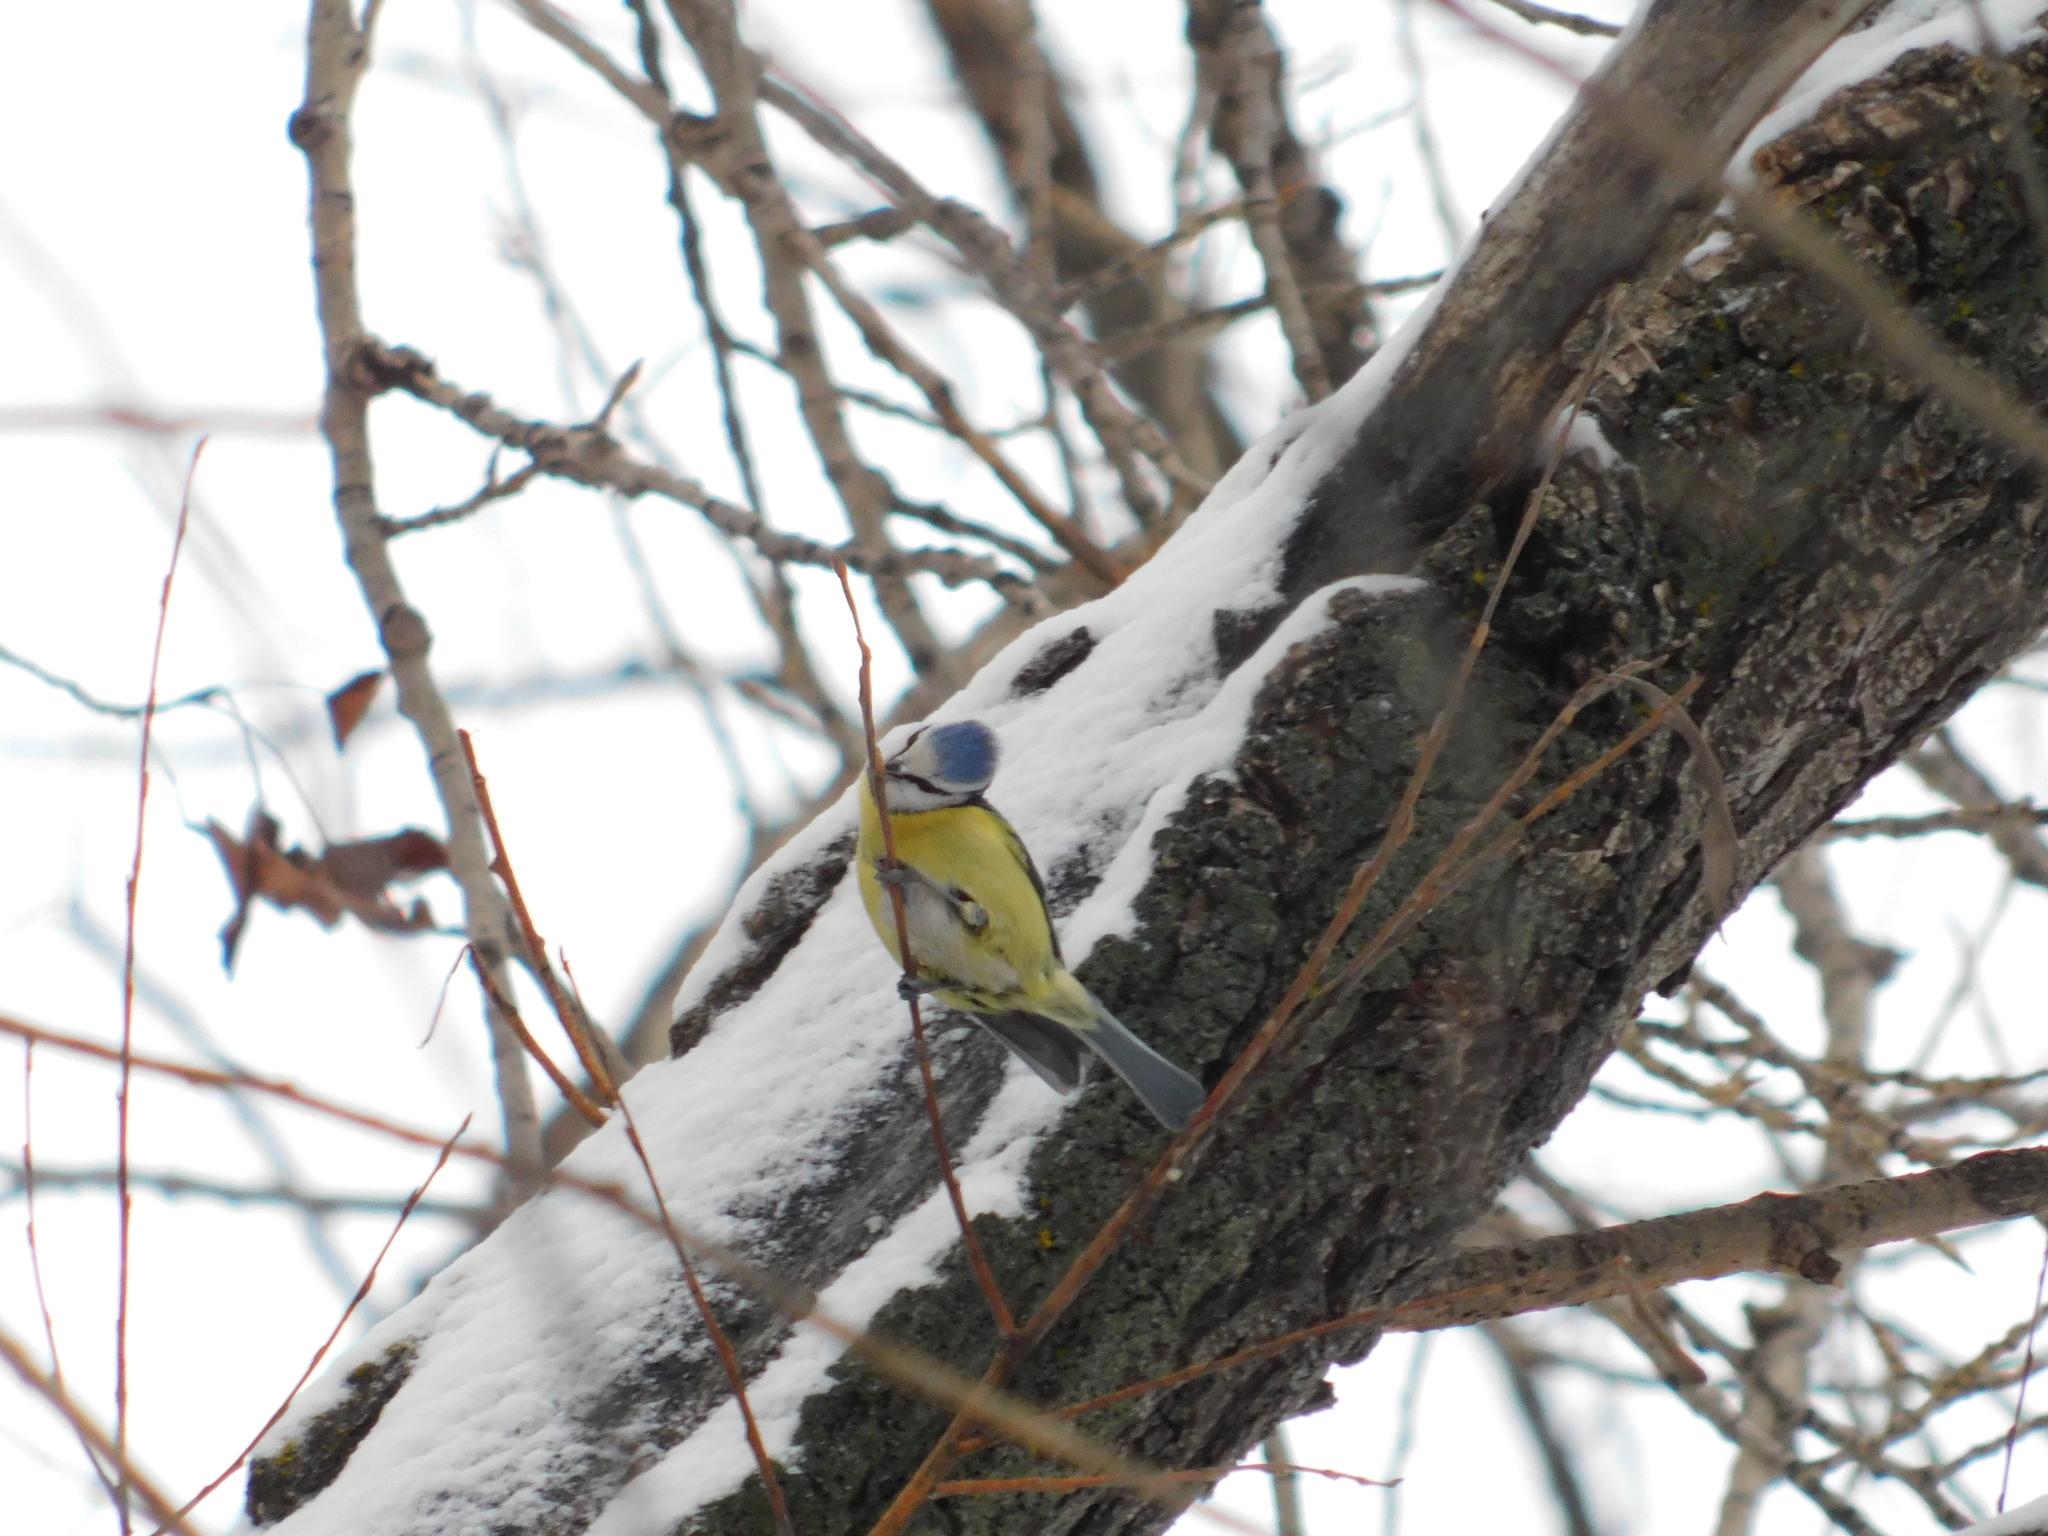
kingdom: Animalia
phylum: Chordata
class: Aves
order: Passeriformes
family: Paridae
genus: Cyanistes
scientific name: Cyanistes caeruleus
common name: Eurasian blue tit
